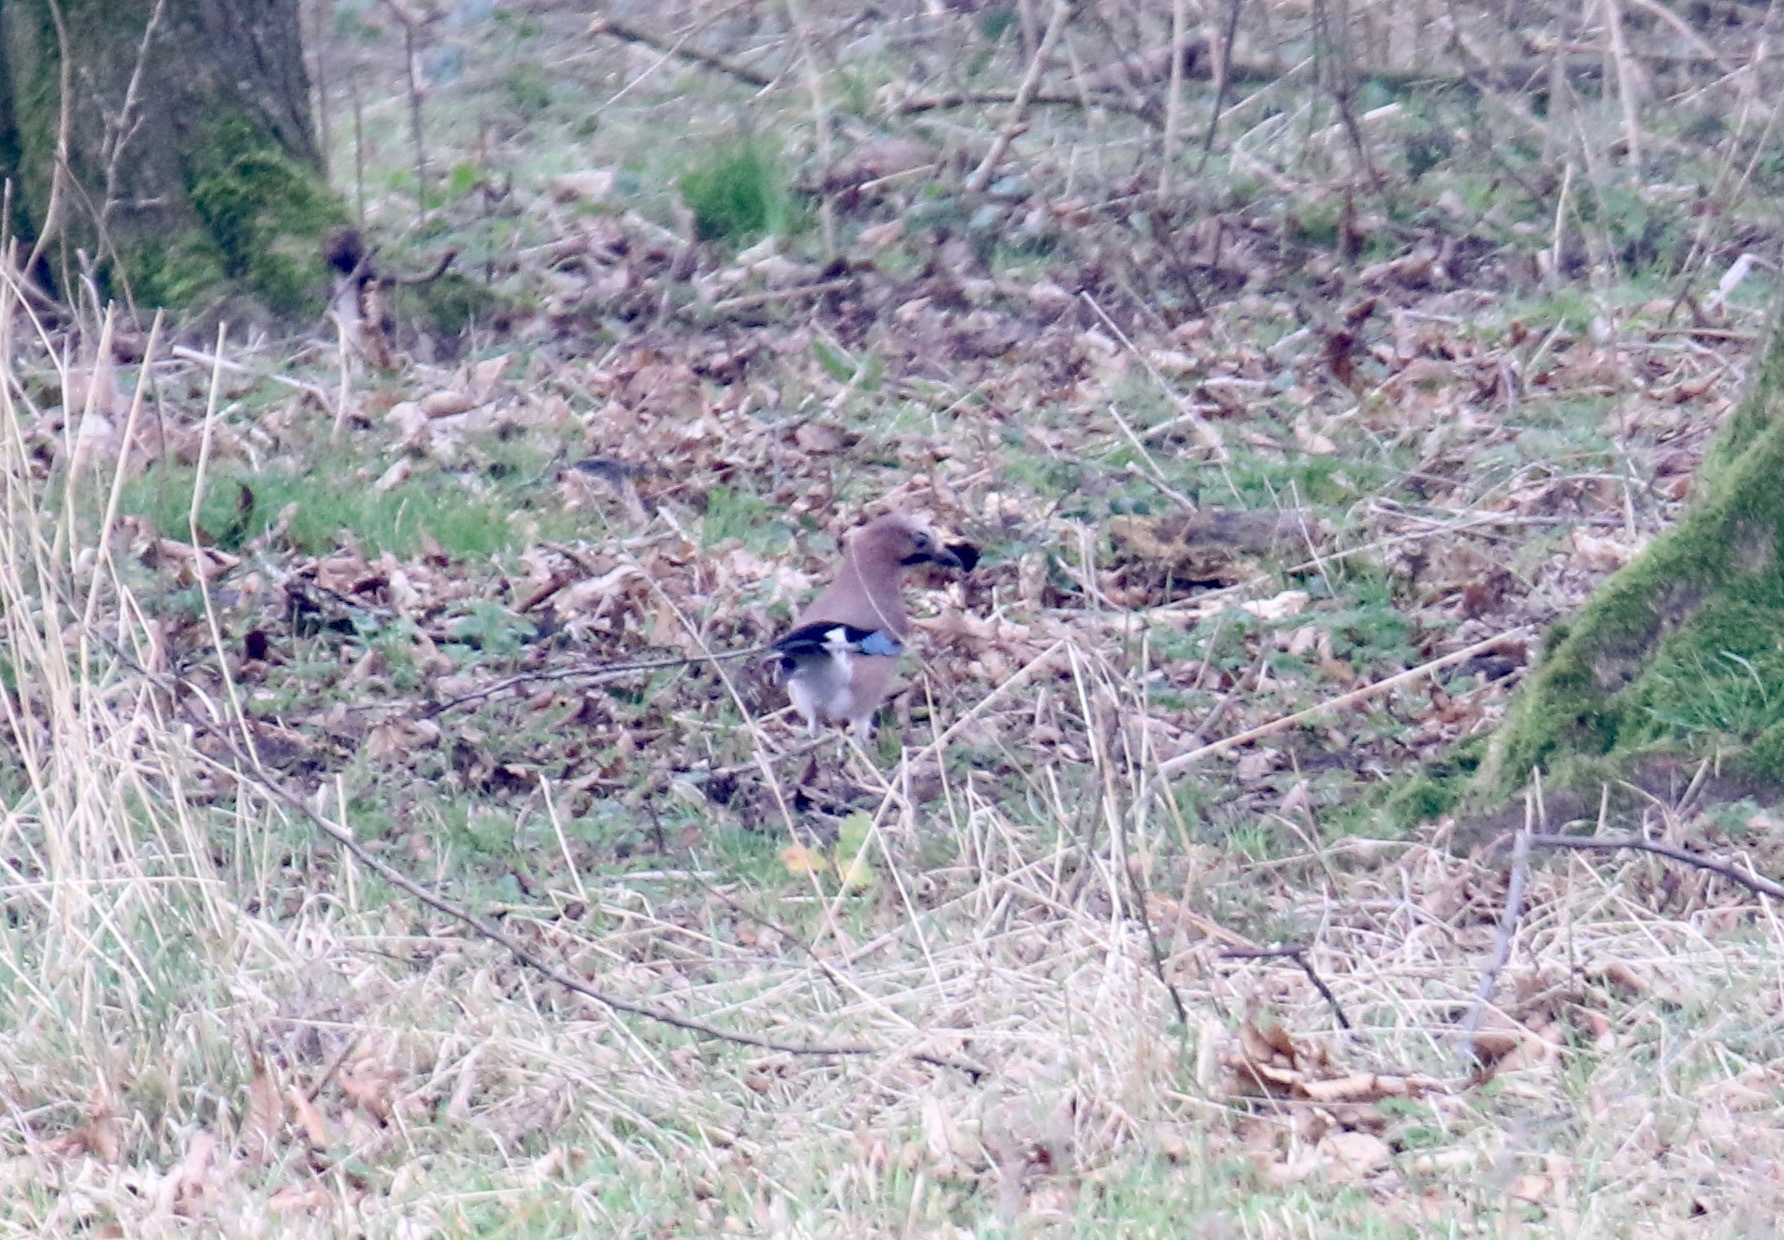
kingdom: Animalia
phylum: Chordata
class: Aves
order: Passeriformes
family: Corvidae
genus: Garrulus
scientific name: Garrulus glandarius
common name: Eurasian jay
